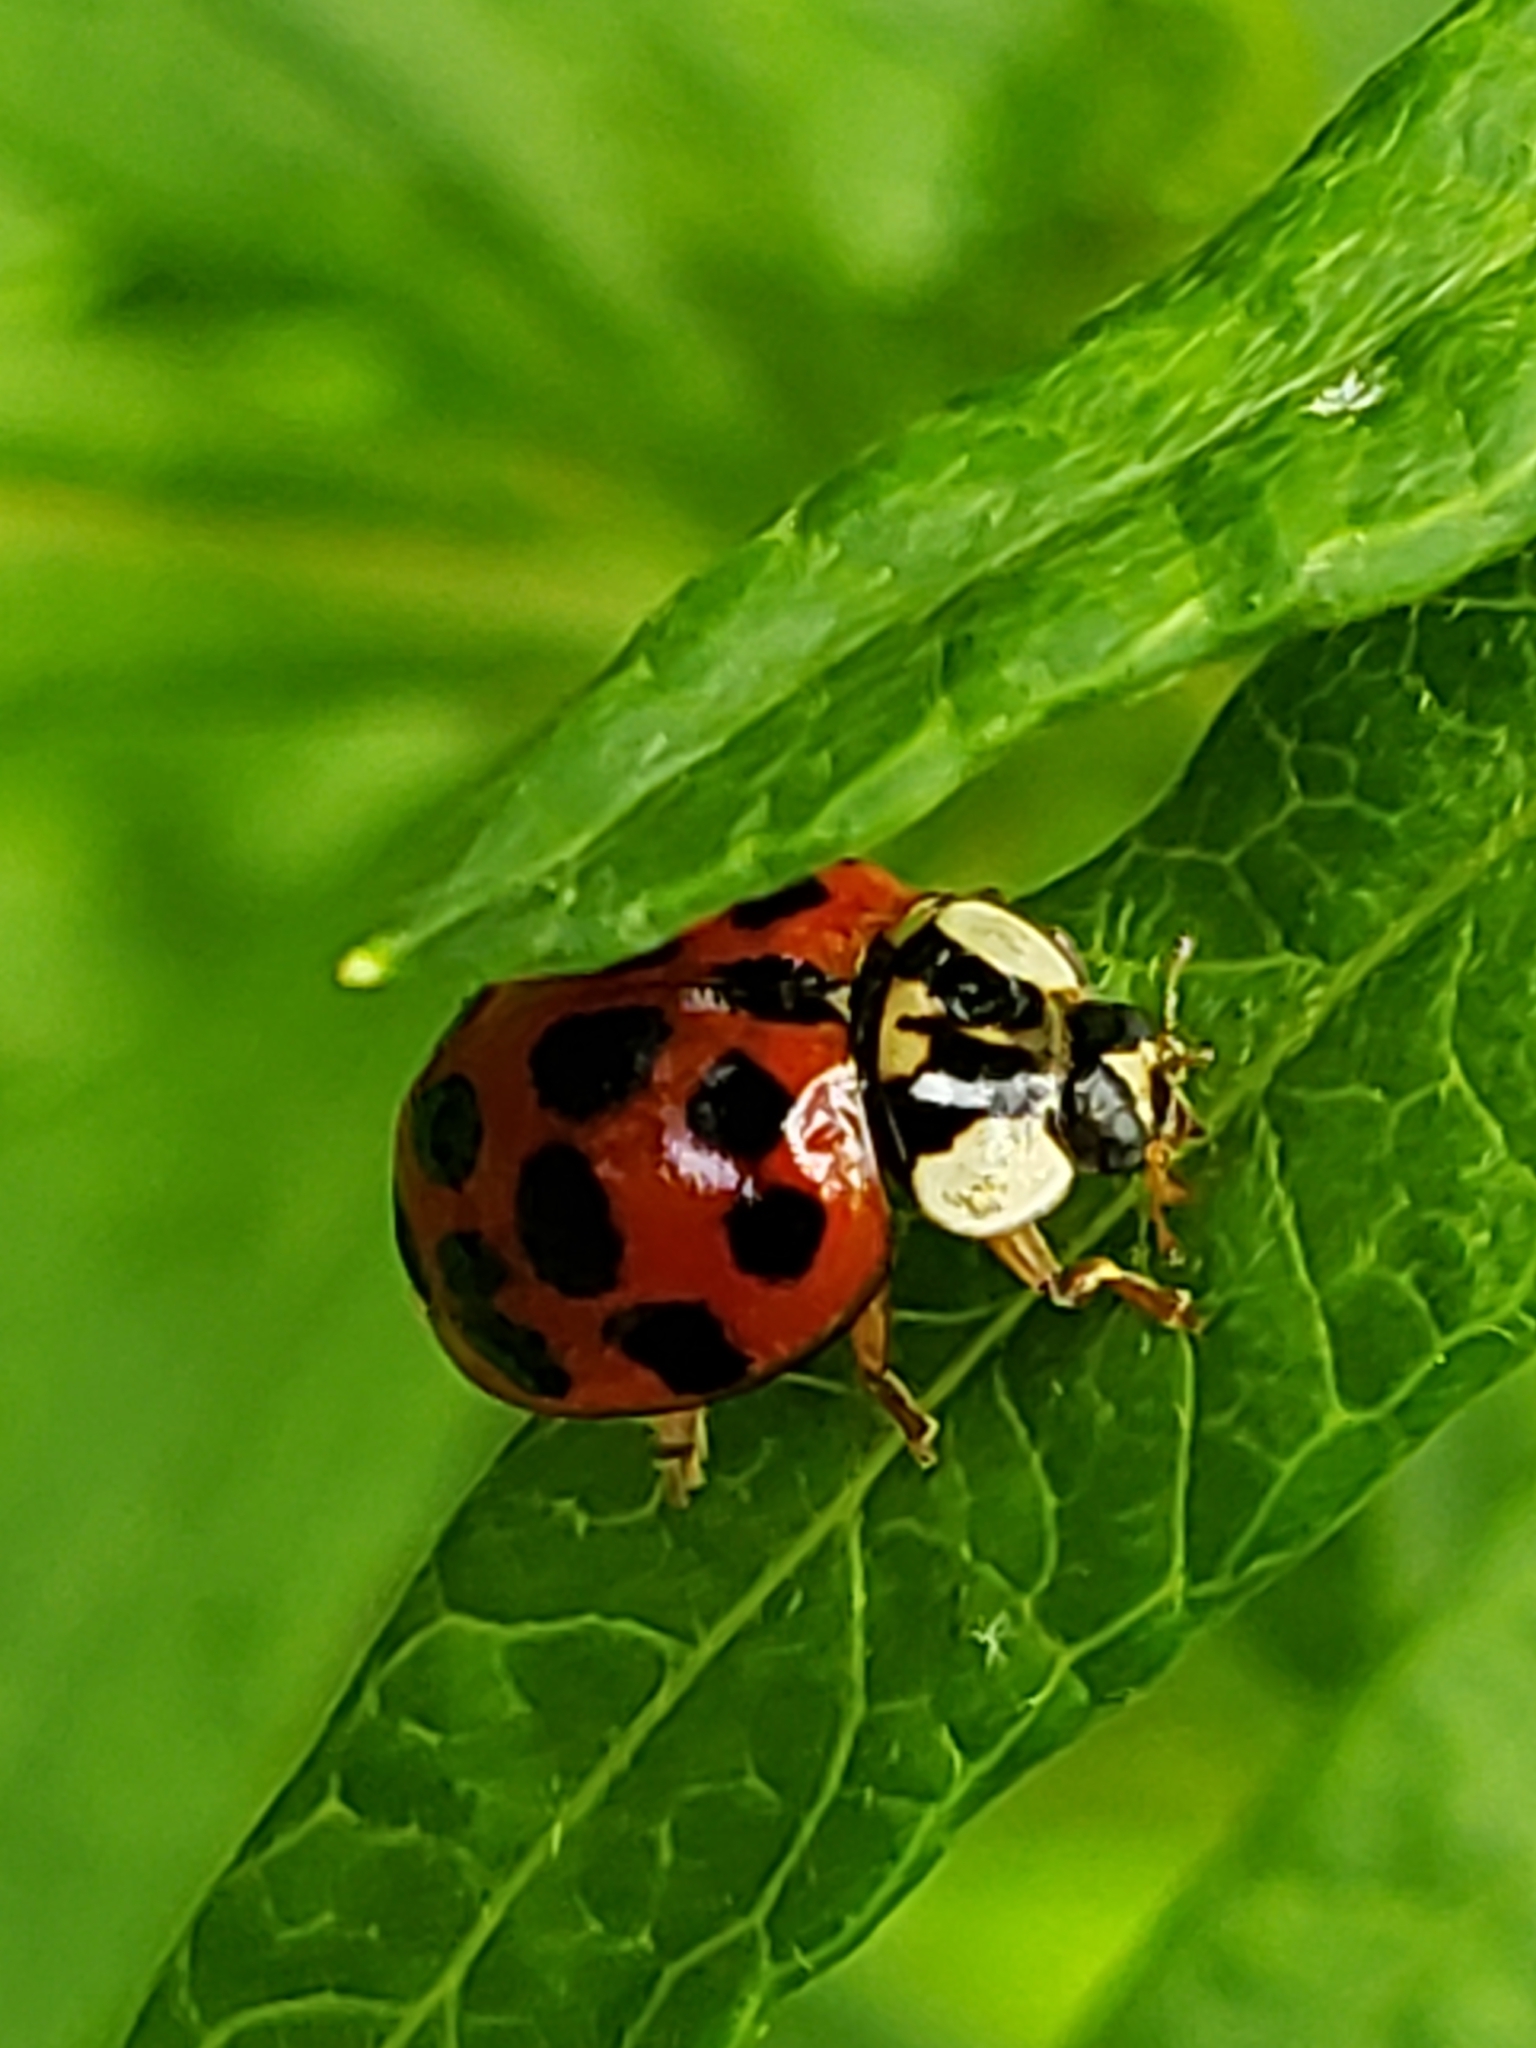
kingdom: Animalia
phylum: Arthropoda
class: Insecta
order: Coleoptera
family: Coccinellidae
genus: Harmonia
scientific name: Harmonia axyridis
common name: Harlequin ladybird
